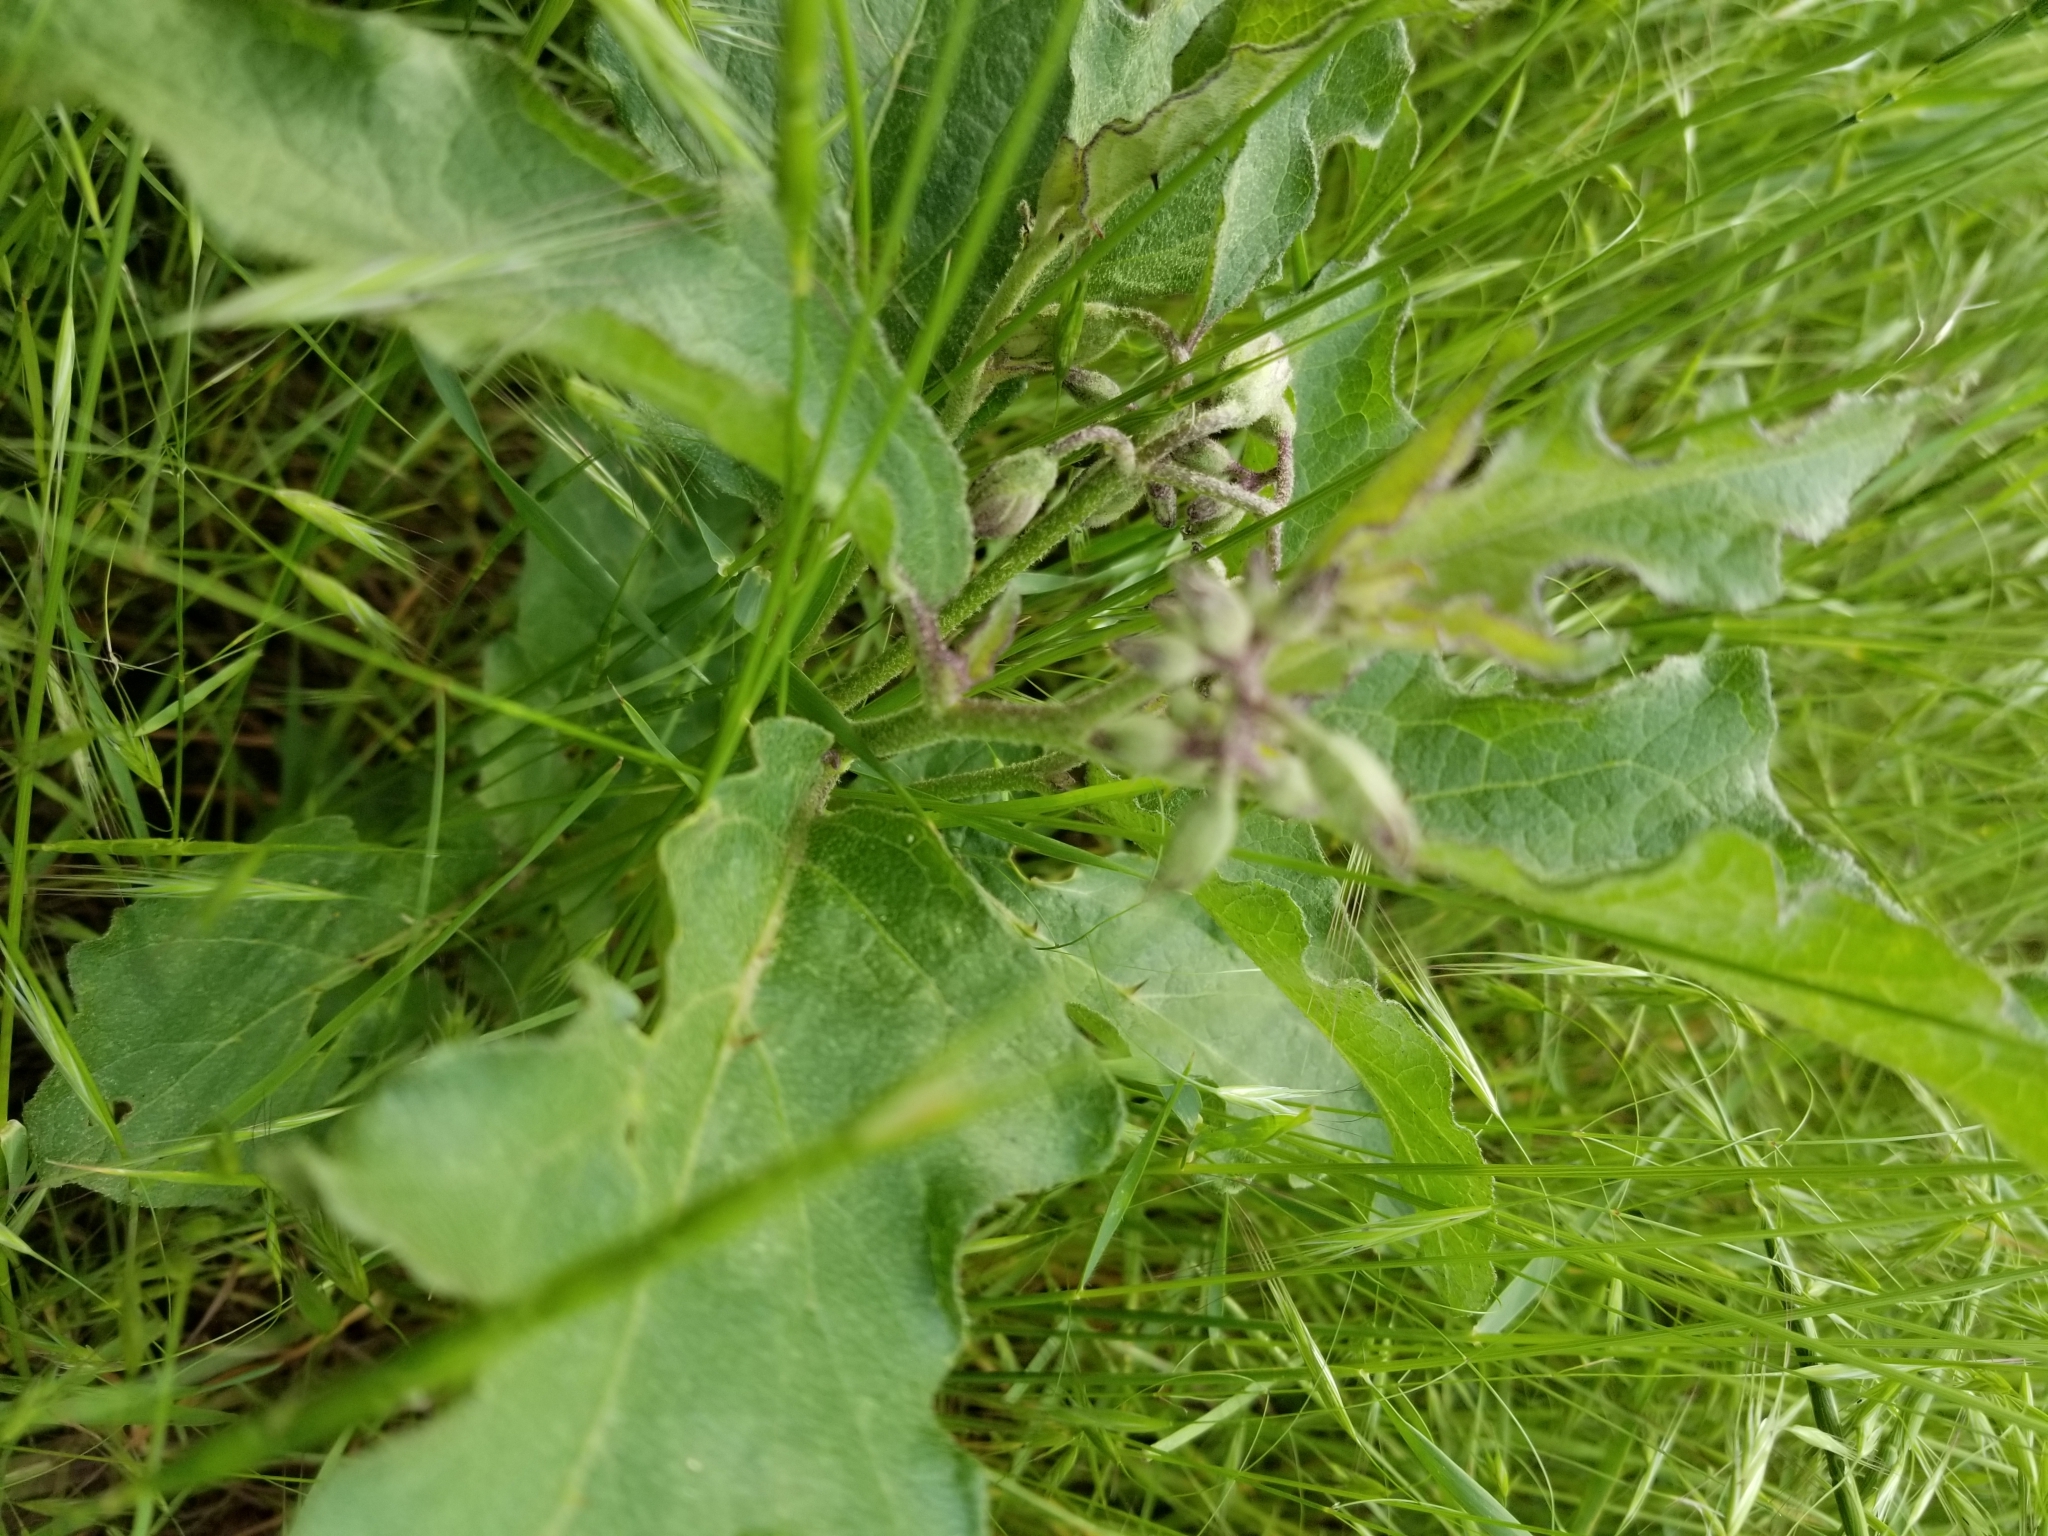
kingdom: Plantae
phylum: Tracheophyta
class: Magnoliopsida
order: Solanales
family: Solanaceae
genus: Solanum
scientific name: Solanum dimidiatum
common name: Carolina horse-nettle
